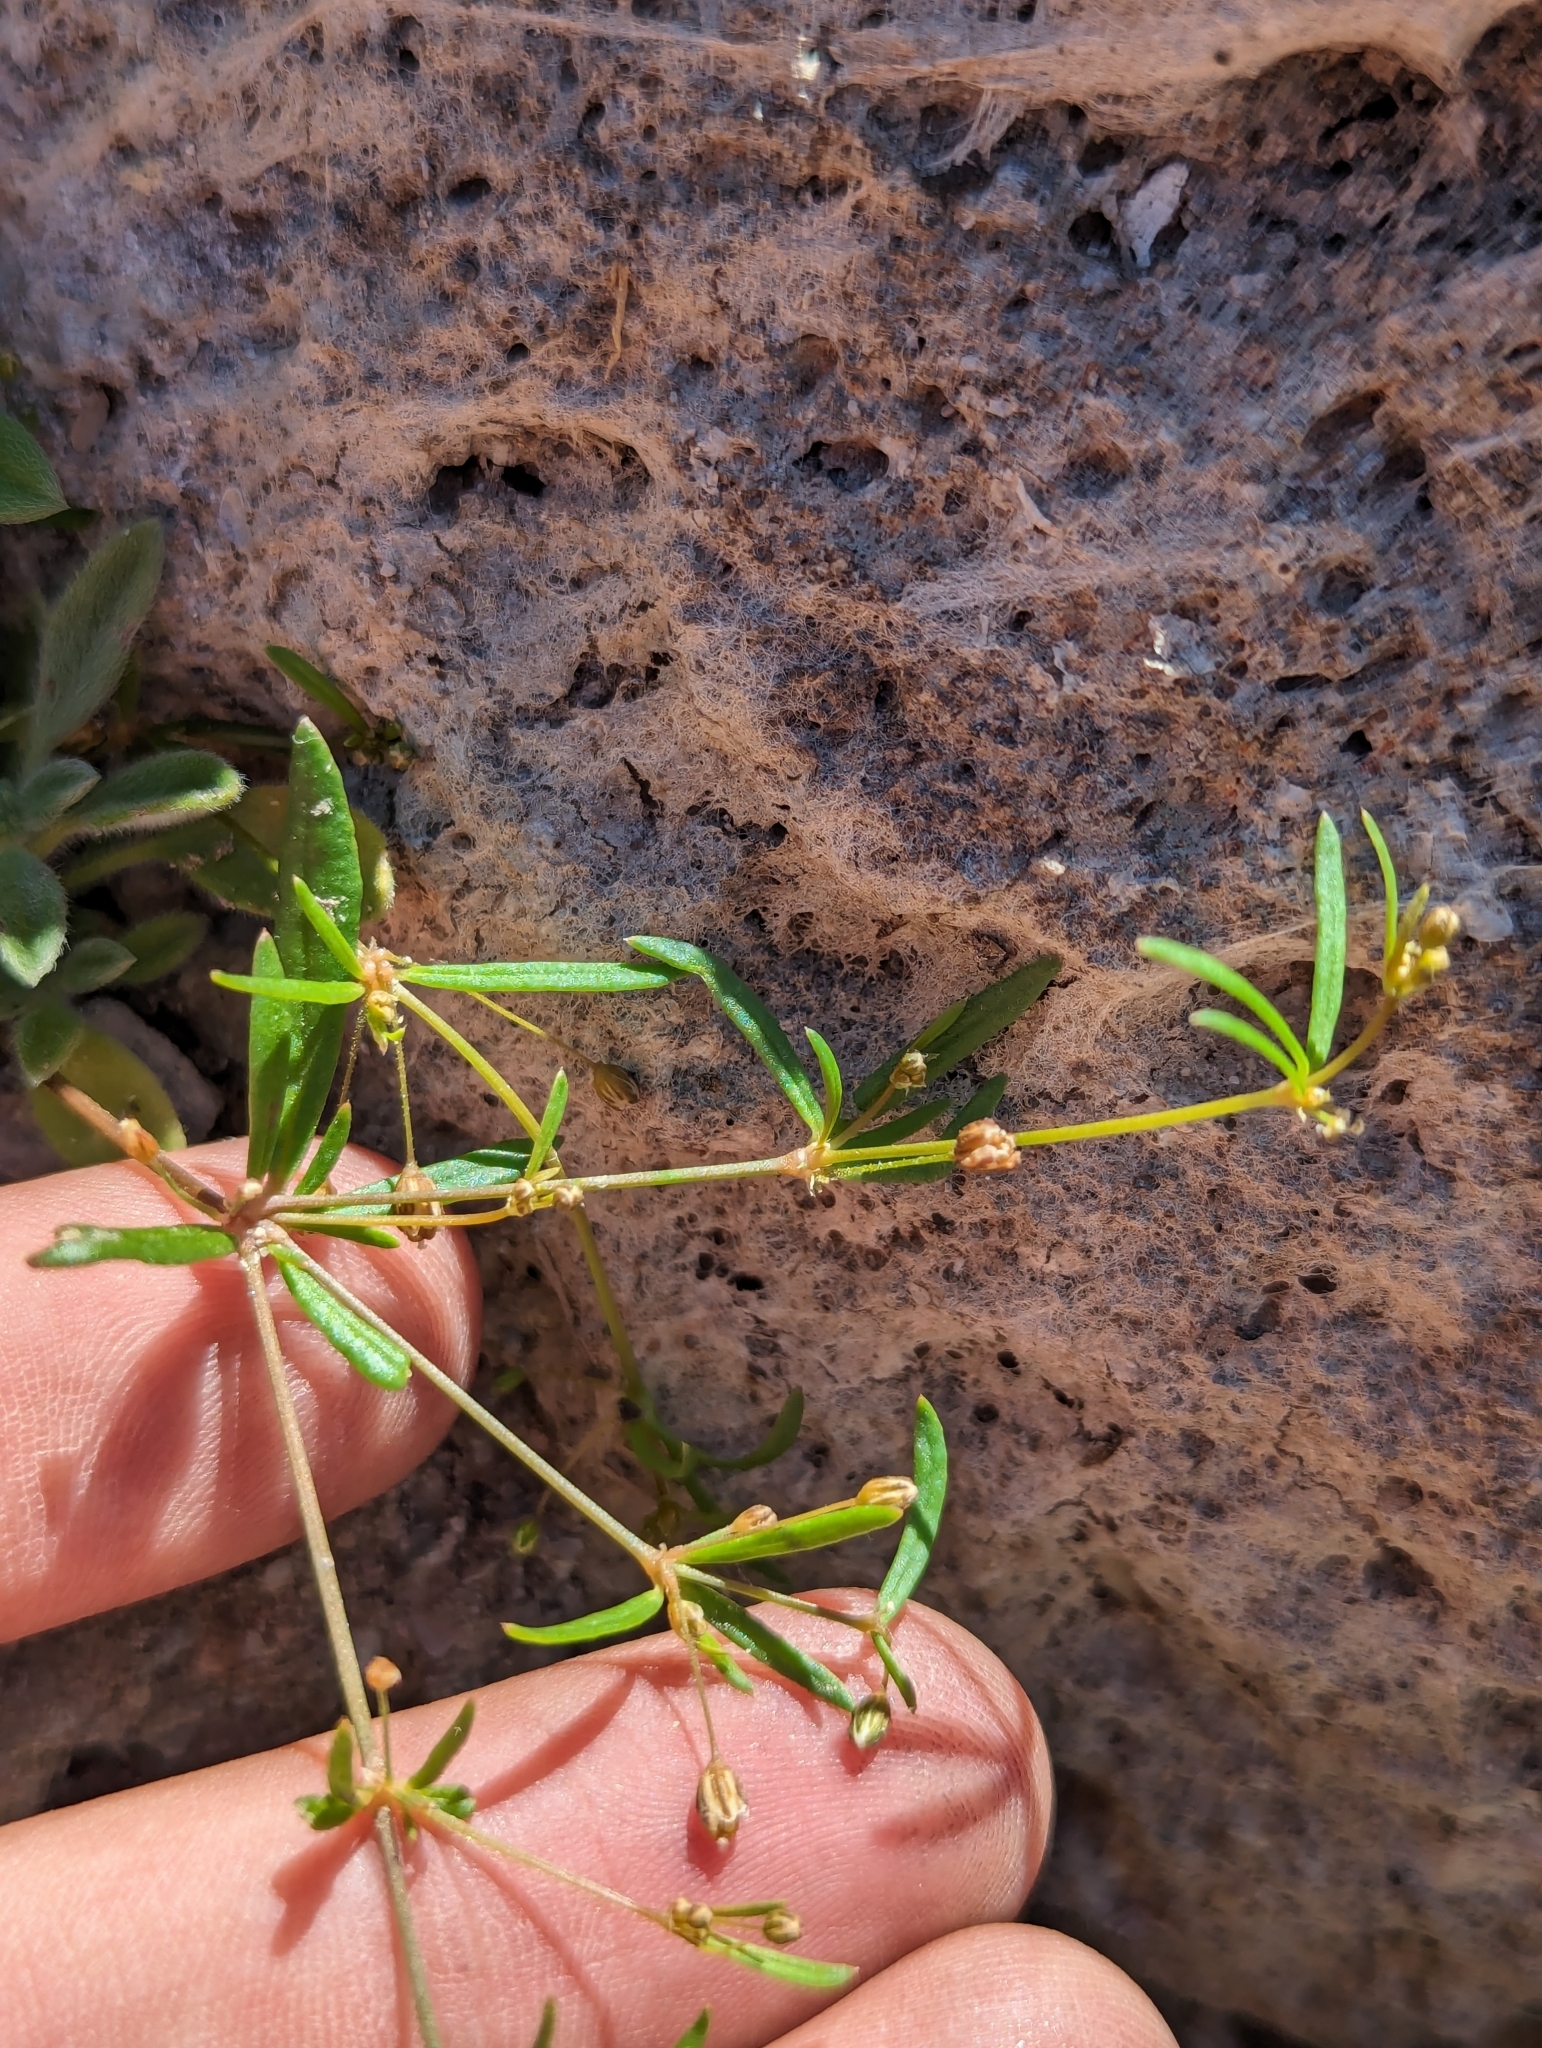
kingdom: Plantae
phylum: Tracheophyta
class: Magnoliopsida
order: Caryophyllales
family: Molluginaceae
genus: Mollugo
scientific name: Mollugo verticillata
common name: Green carpetweed
